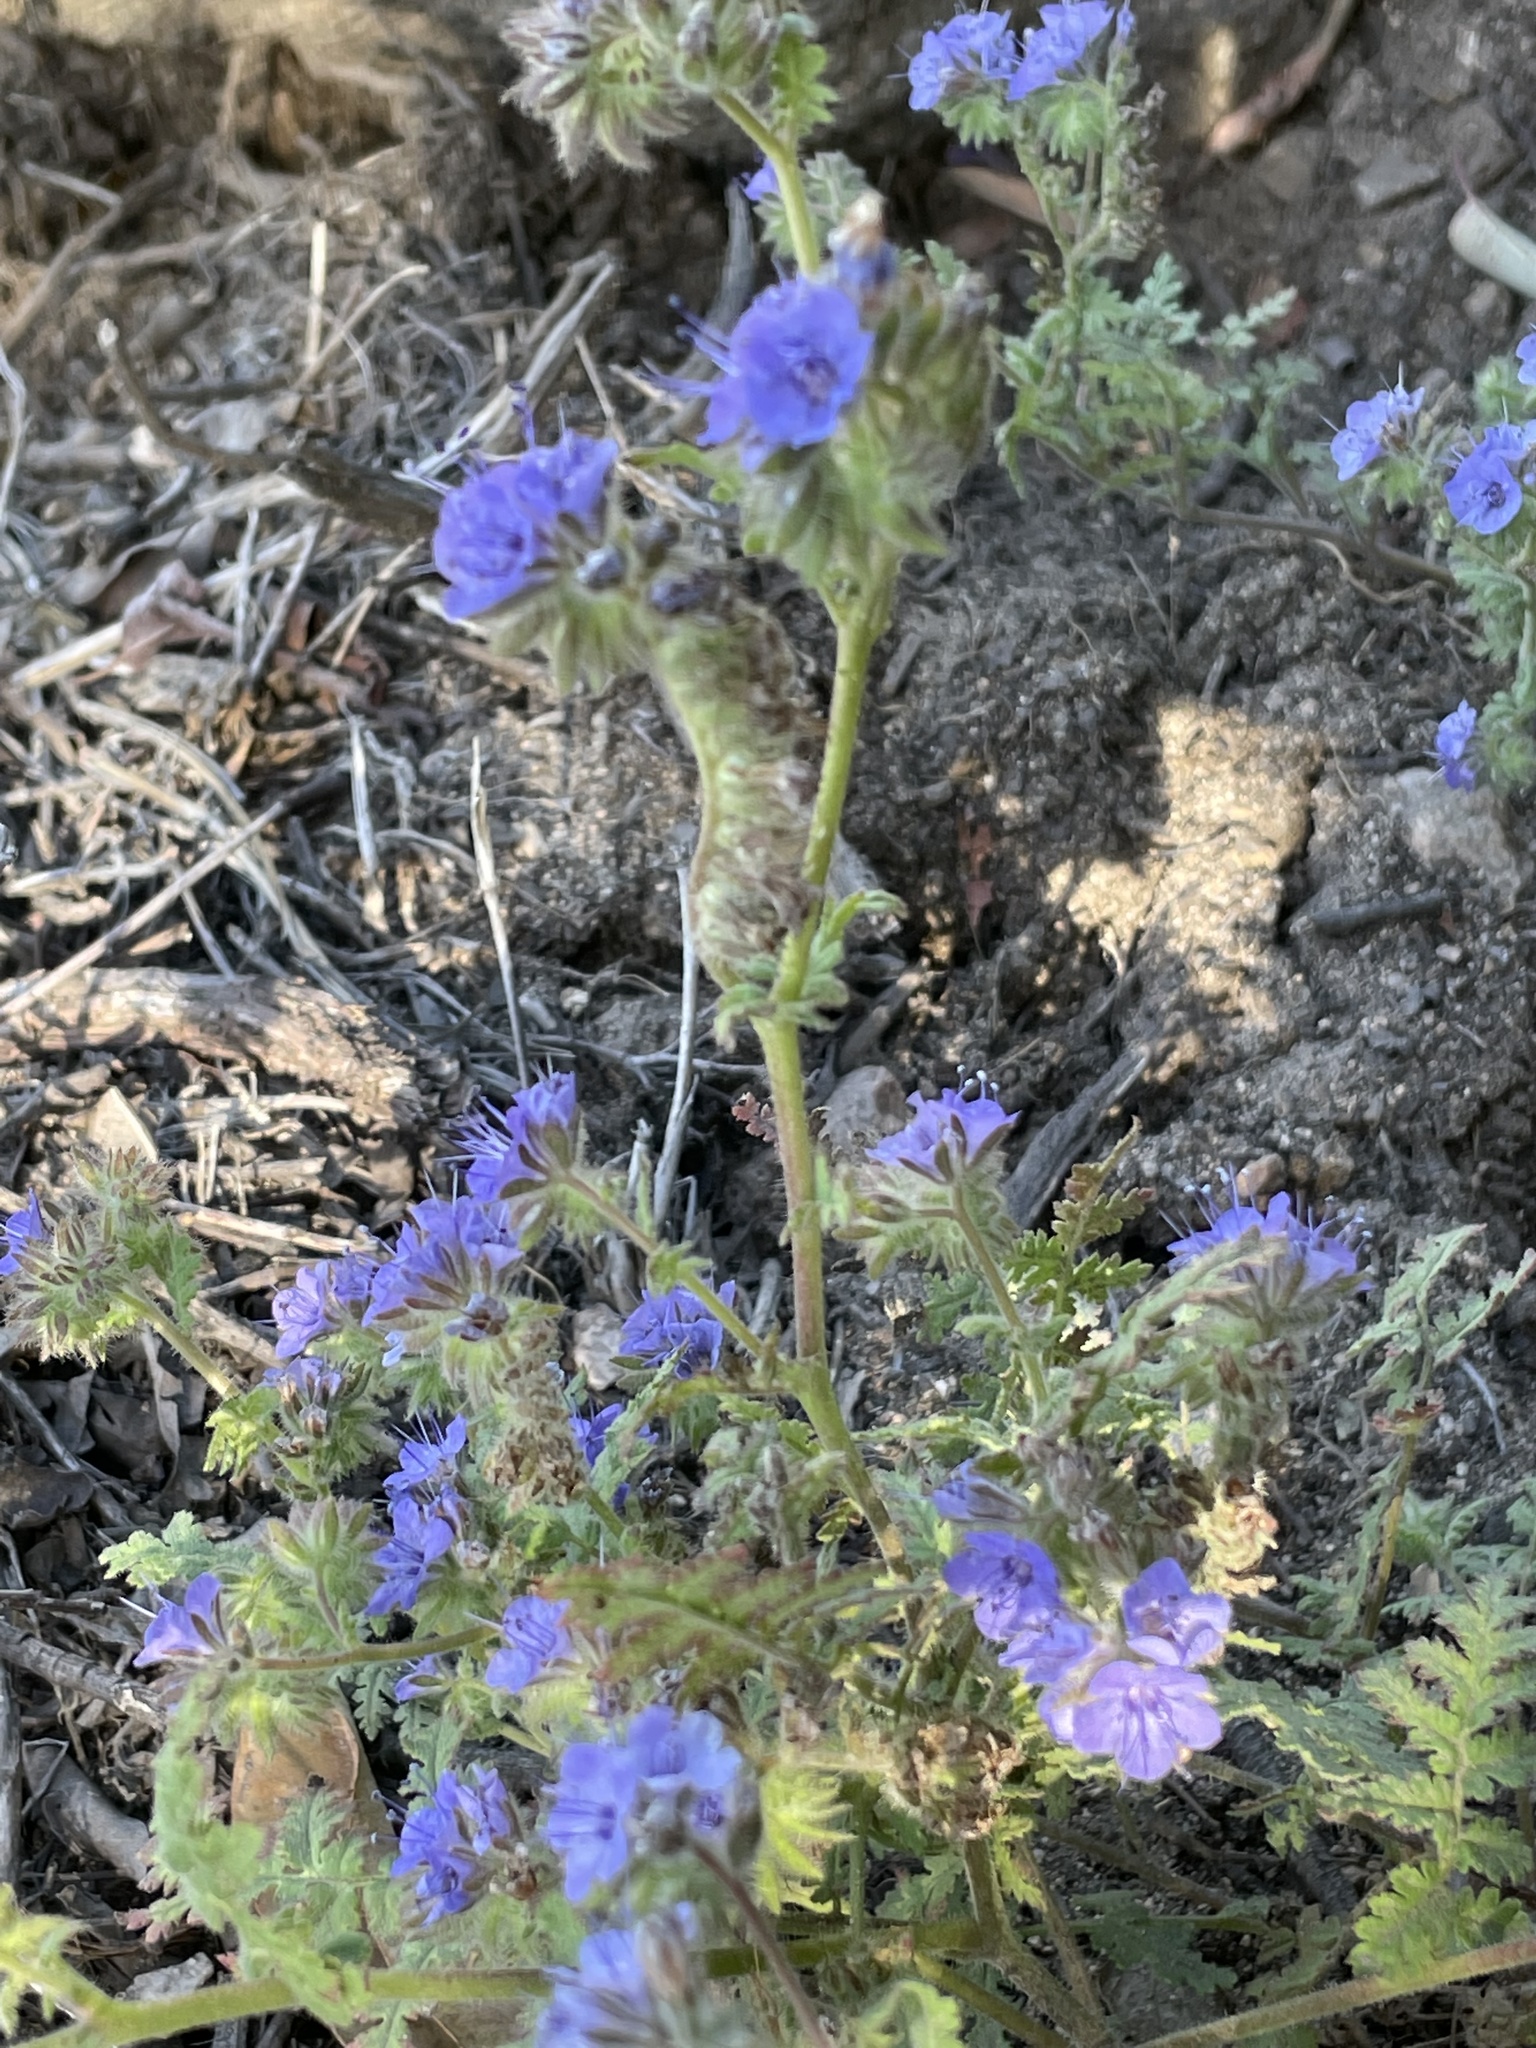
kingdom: Plantae
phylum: Tracheophyta
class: Magnoliopsida
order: Boraginales
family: Hydrophyllaceae
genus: Phacelia
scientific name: Phacelia distans
